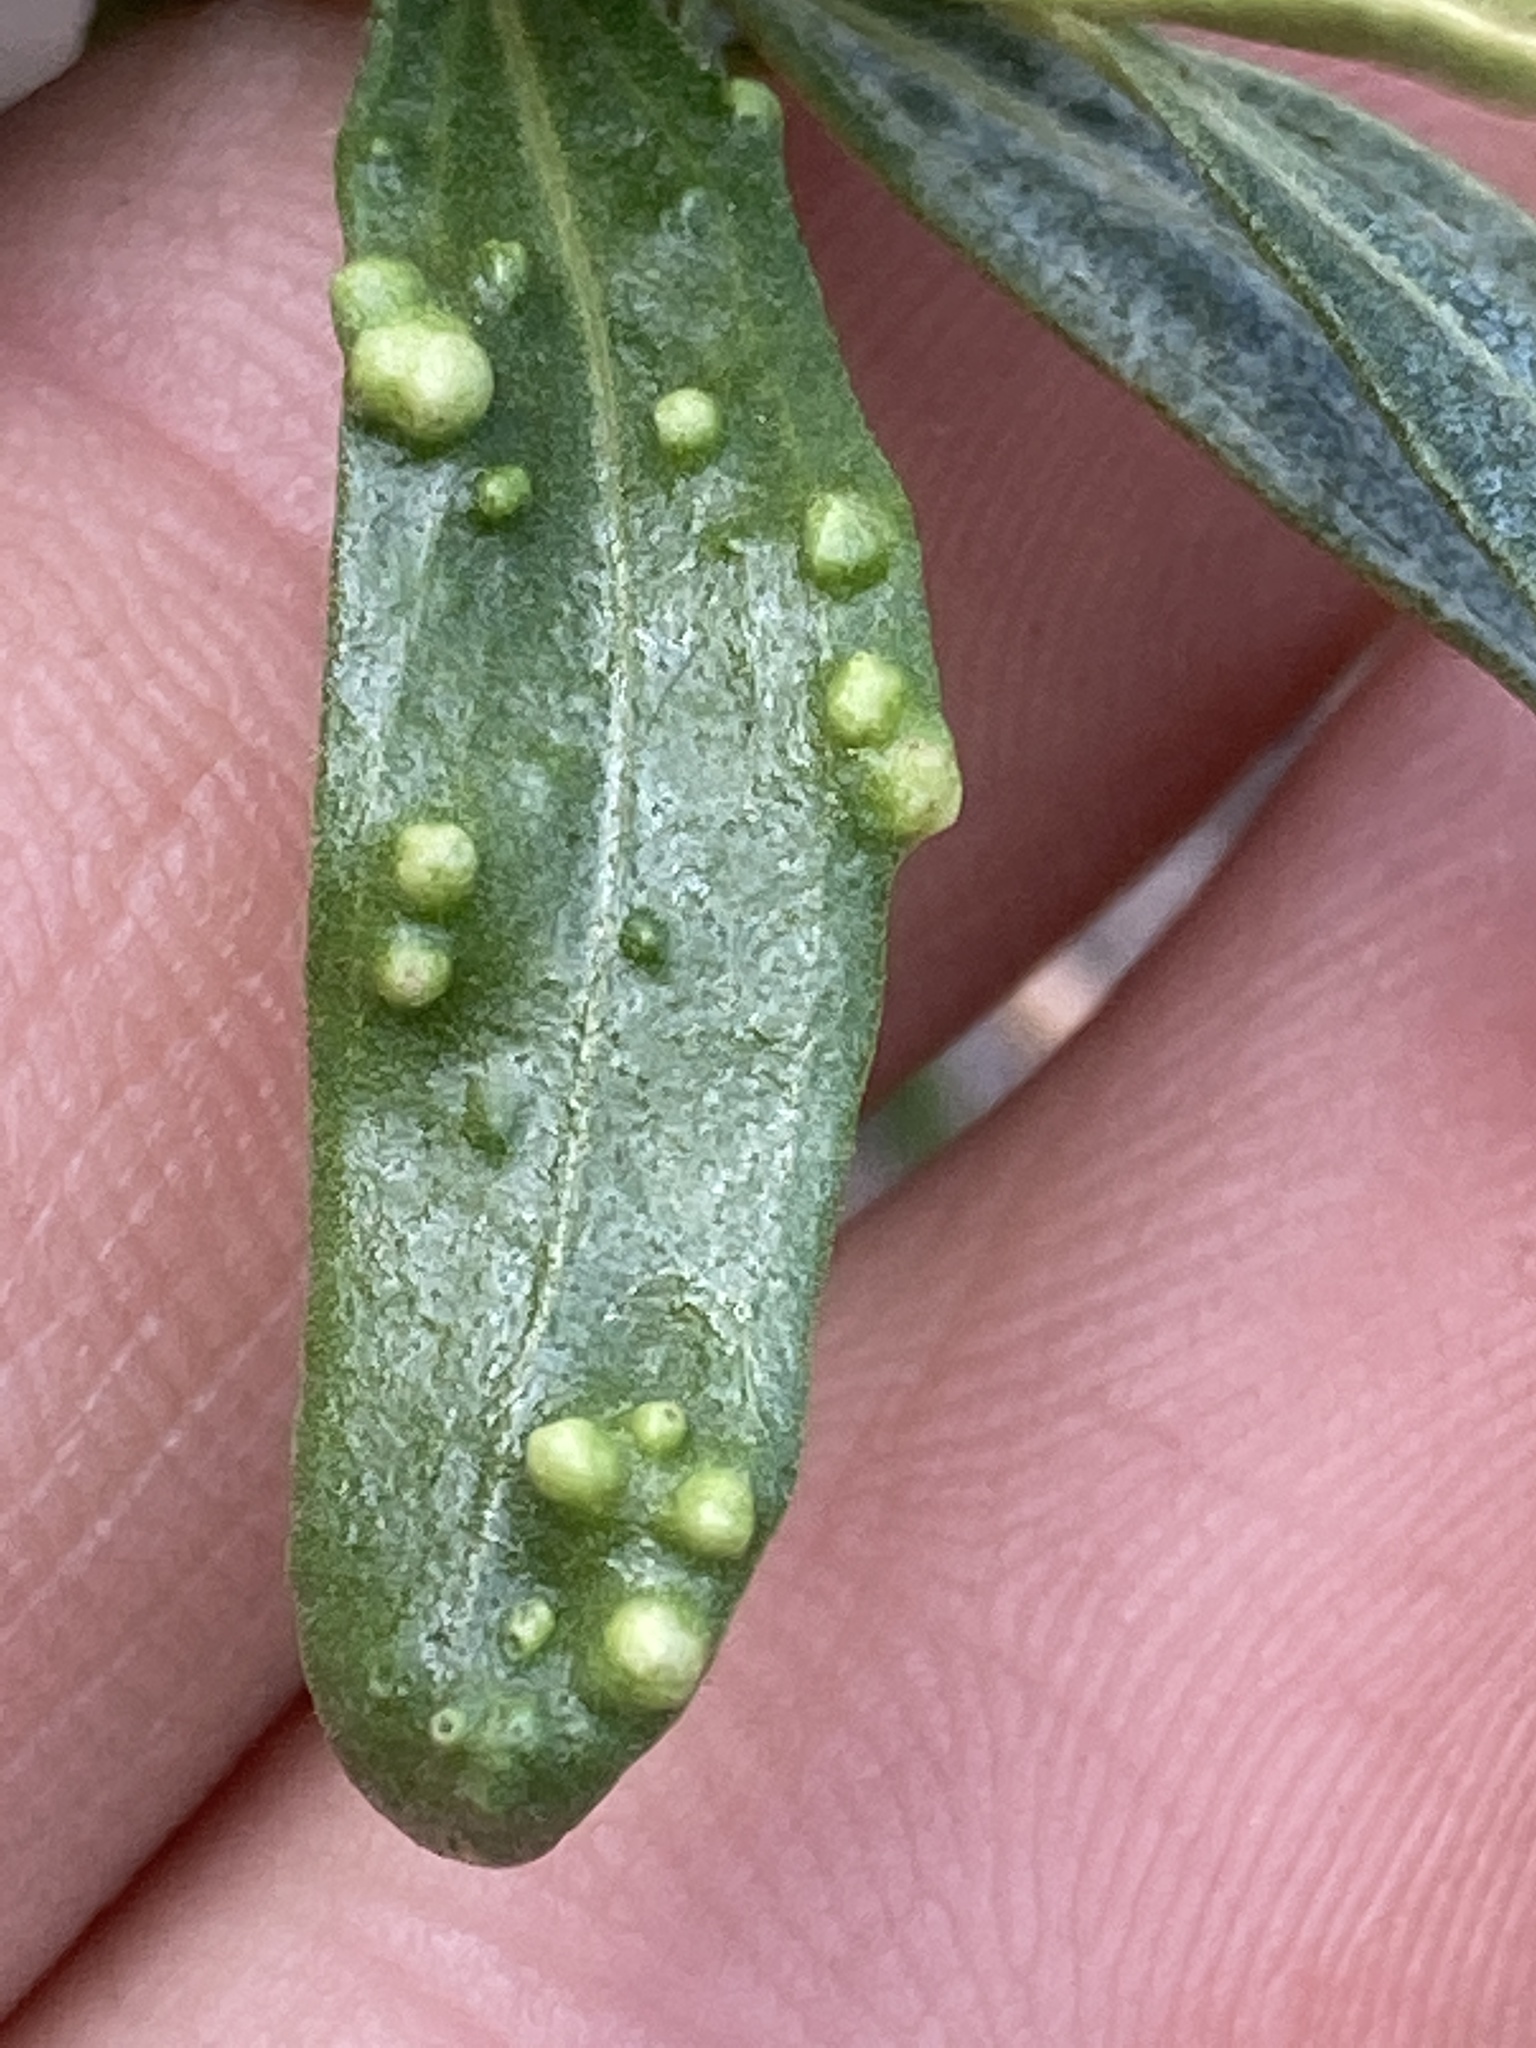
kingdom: Animalia
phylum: Arthropoda
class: Arachnida
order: Trombidiformes
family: Eriophyidae
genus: Aceria
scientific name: Aceria
